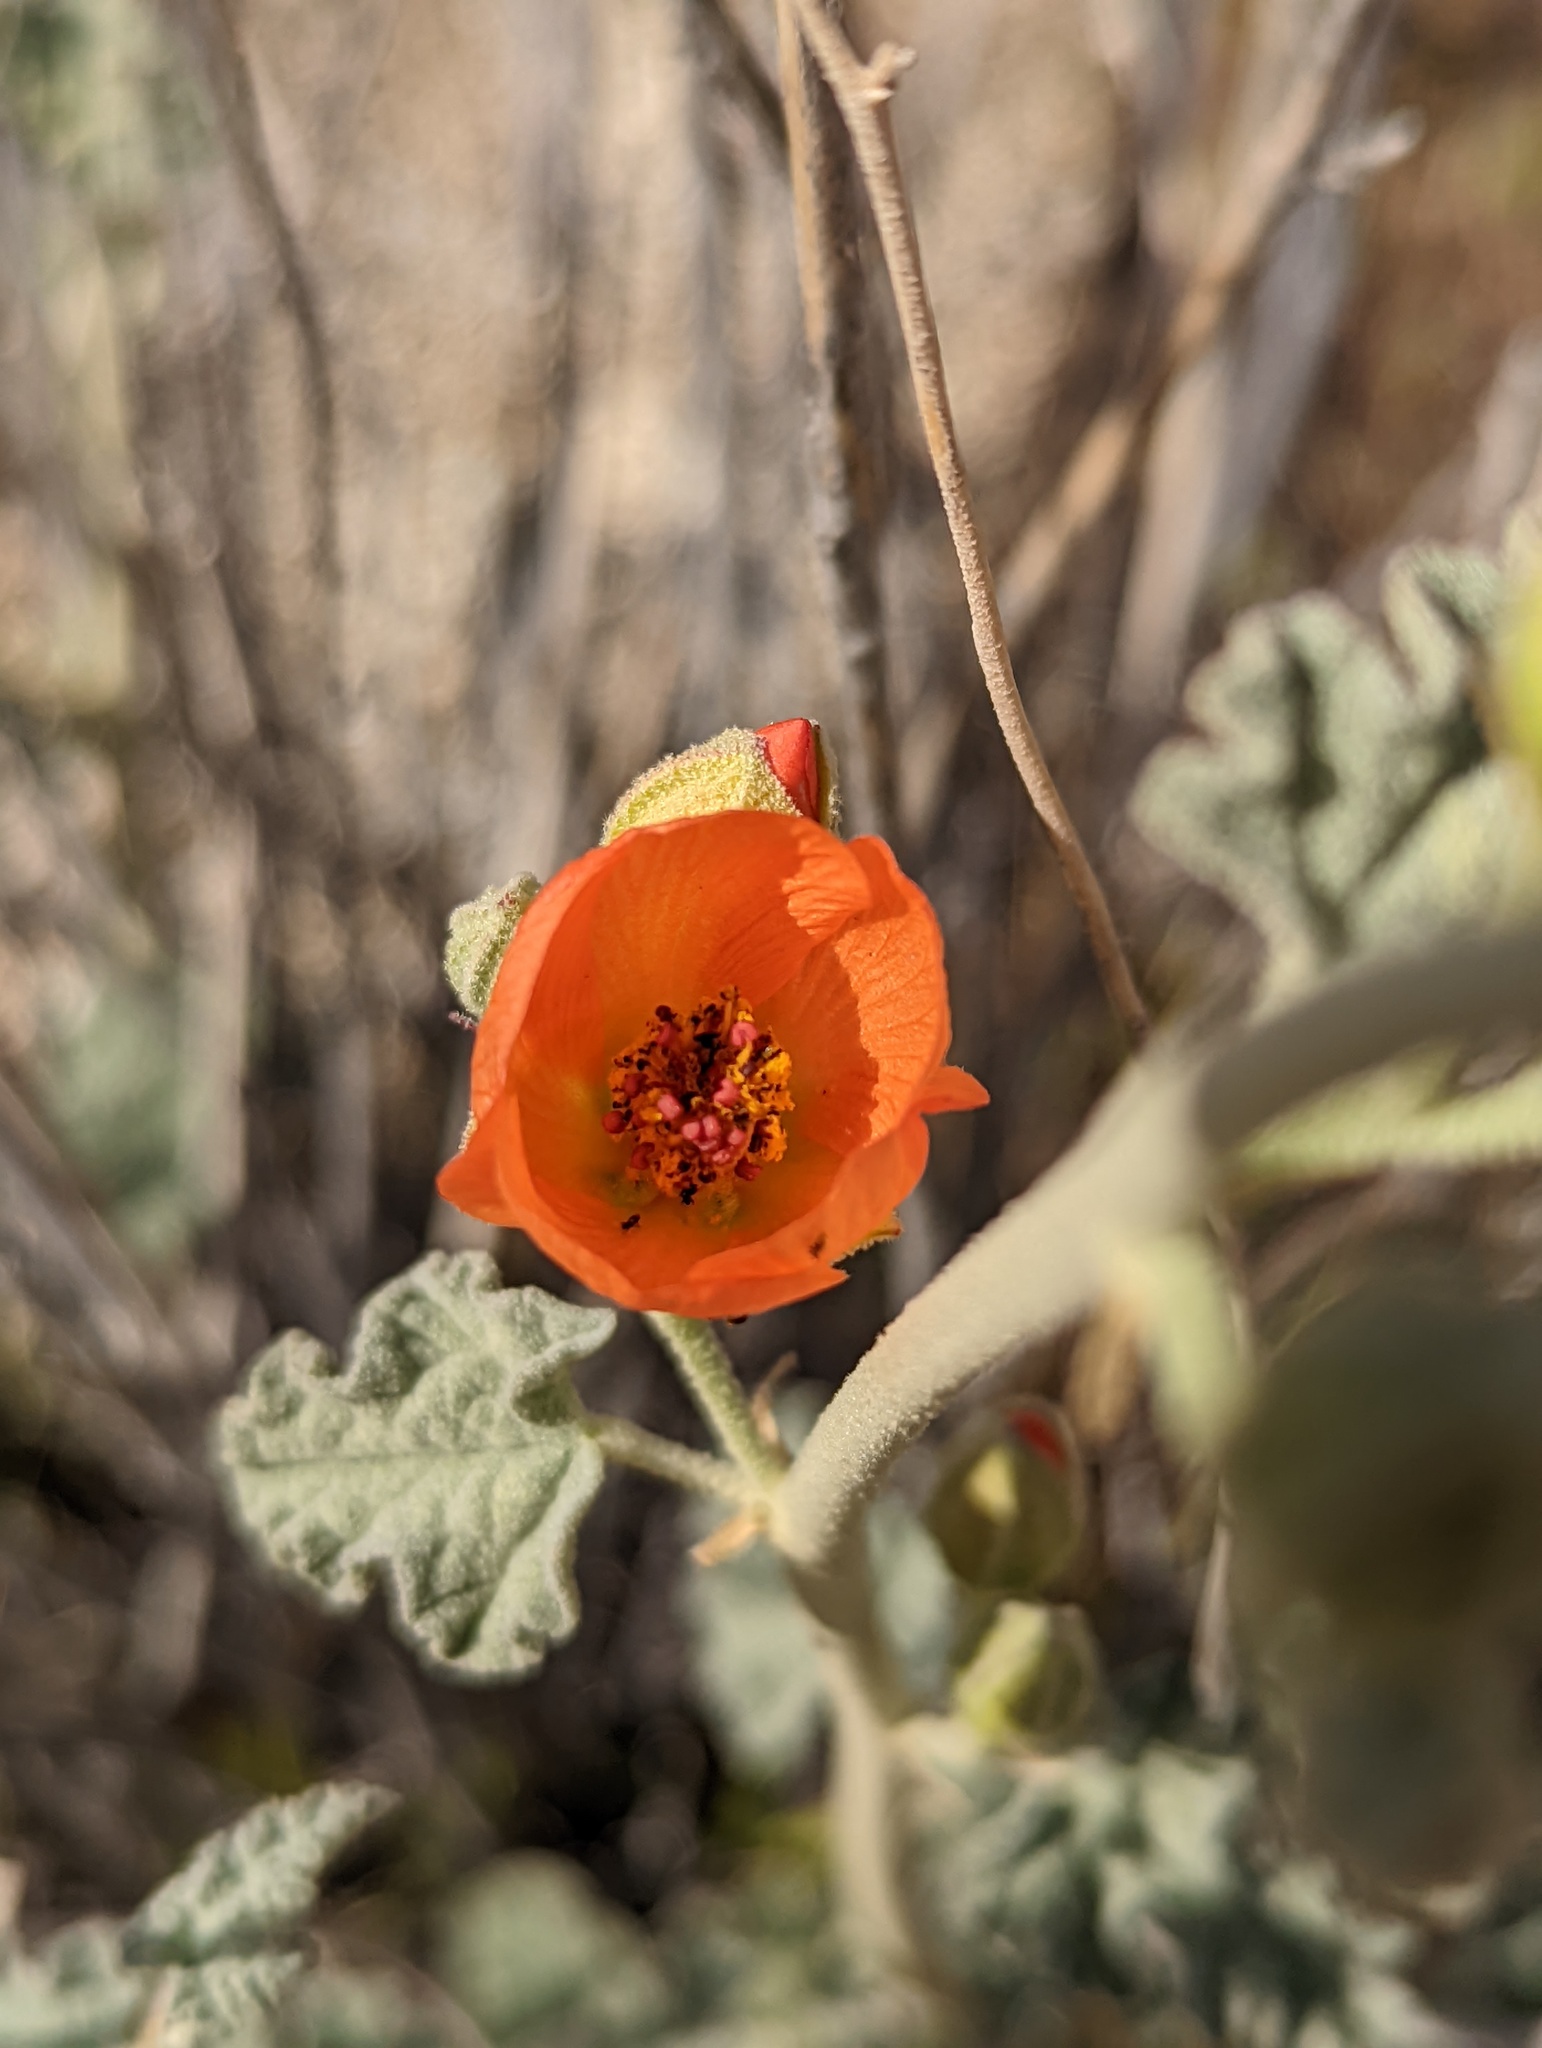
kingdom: Plantae
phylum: Tracheophyta
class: Magnoliopsida
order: Malvales
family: Malvaceae
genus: Sphaeralcea
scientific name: Sphaeralcea ambigua
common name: Apricot globe-mallow
